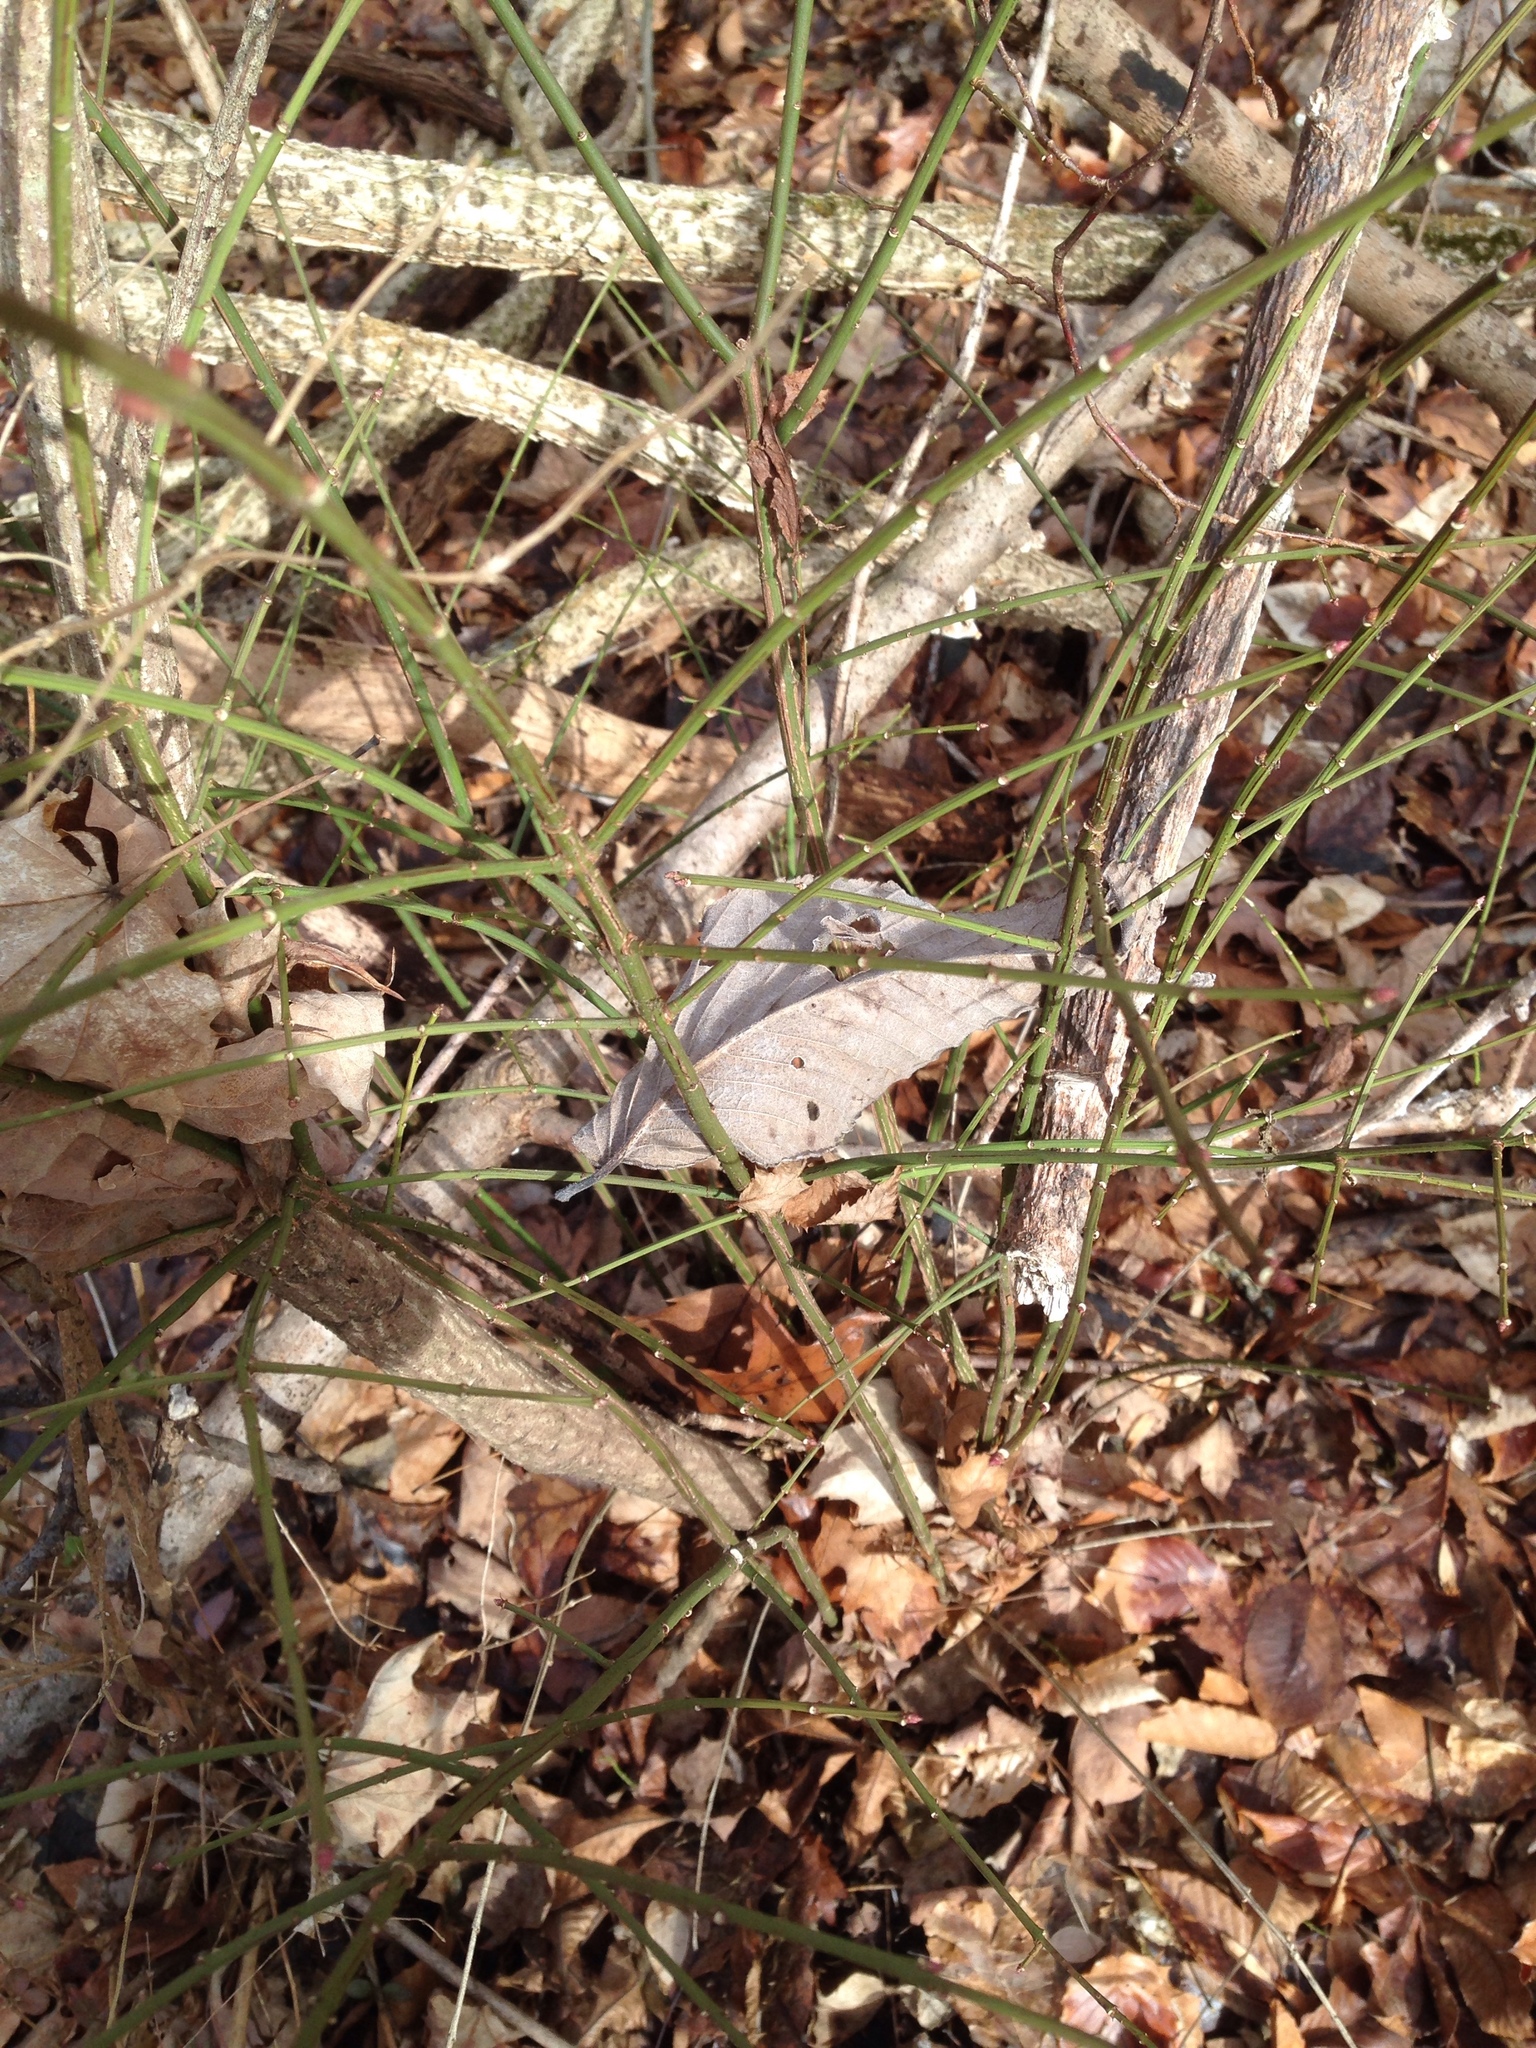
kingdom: Plantae
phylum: Tracheophyta
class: Magnoliopsida
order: Celastrales
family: Celastraceae
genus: Euonymus
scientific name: Euonymus alatus
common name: Winged euonymus
